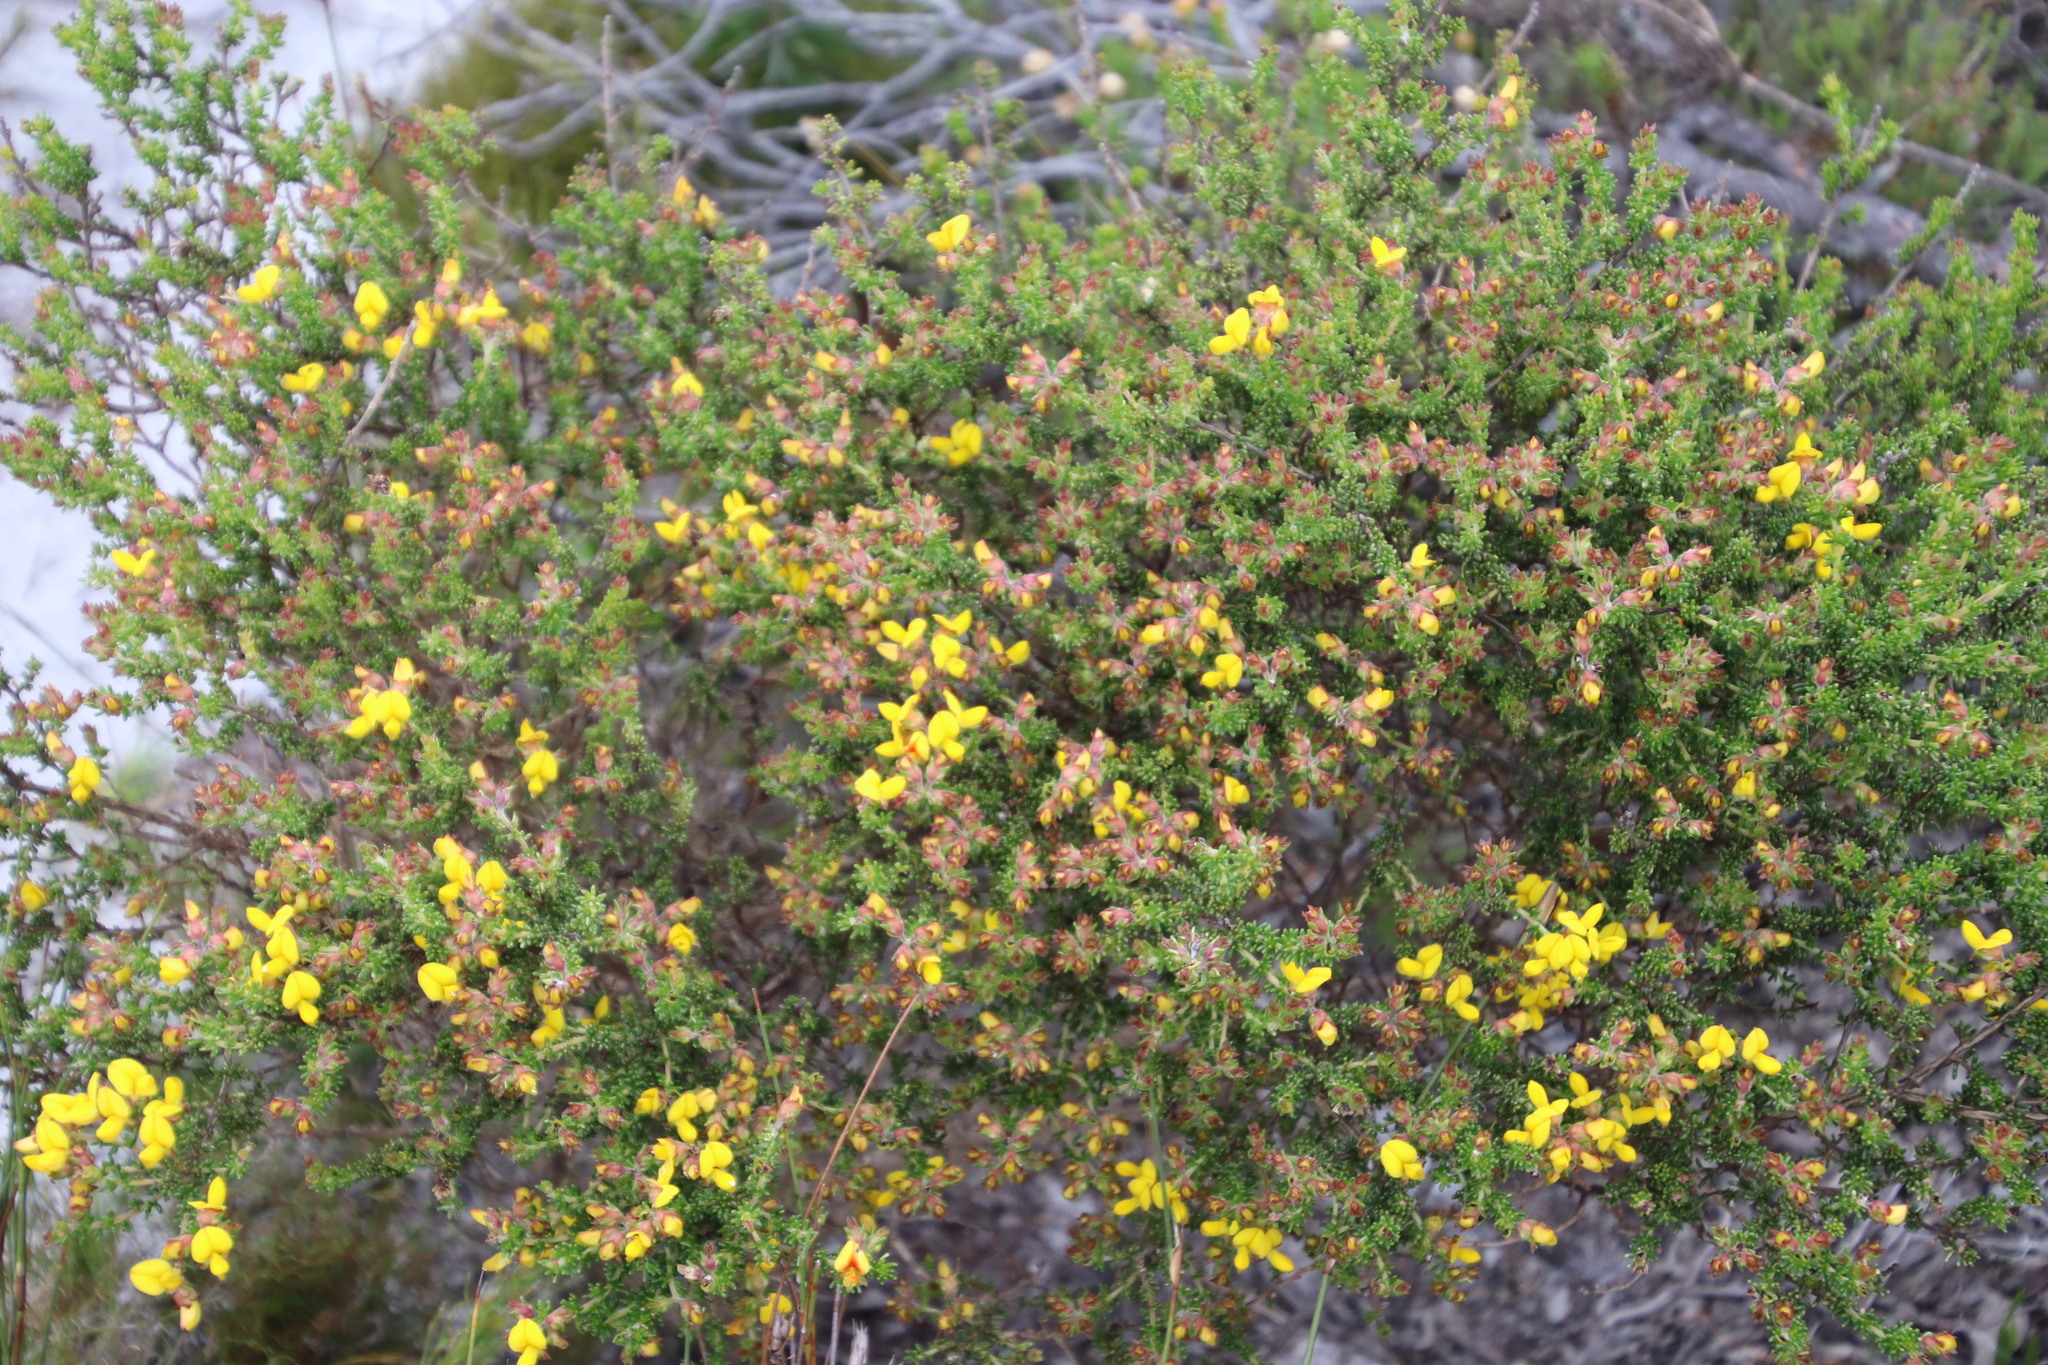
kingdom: Plantae
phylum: Tracheophyta
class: Magnoliopsida
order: Fabales
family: Fabaceae
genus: Aspalathus
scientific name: Aspalathus carnosa
